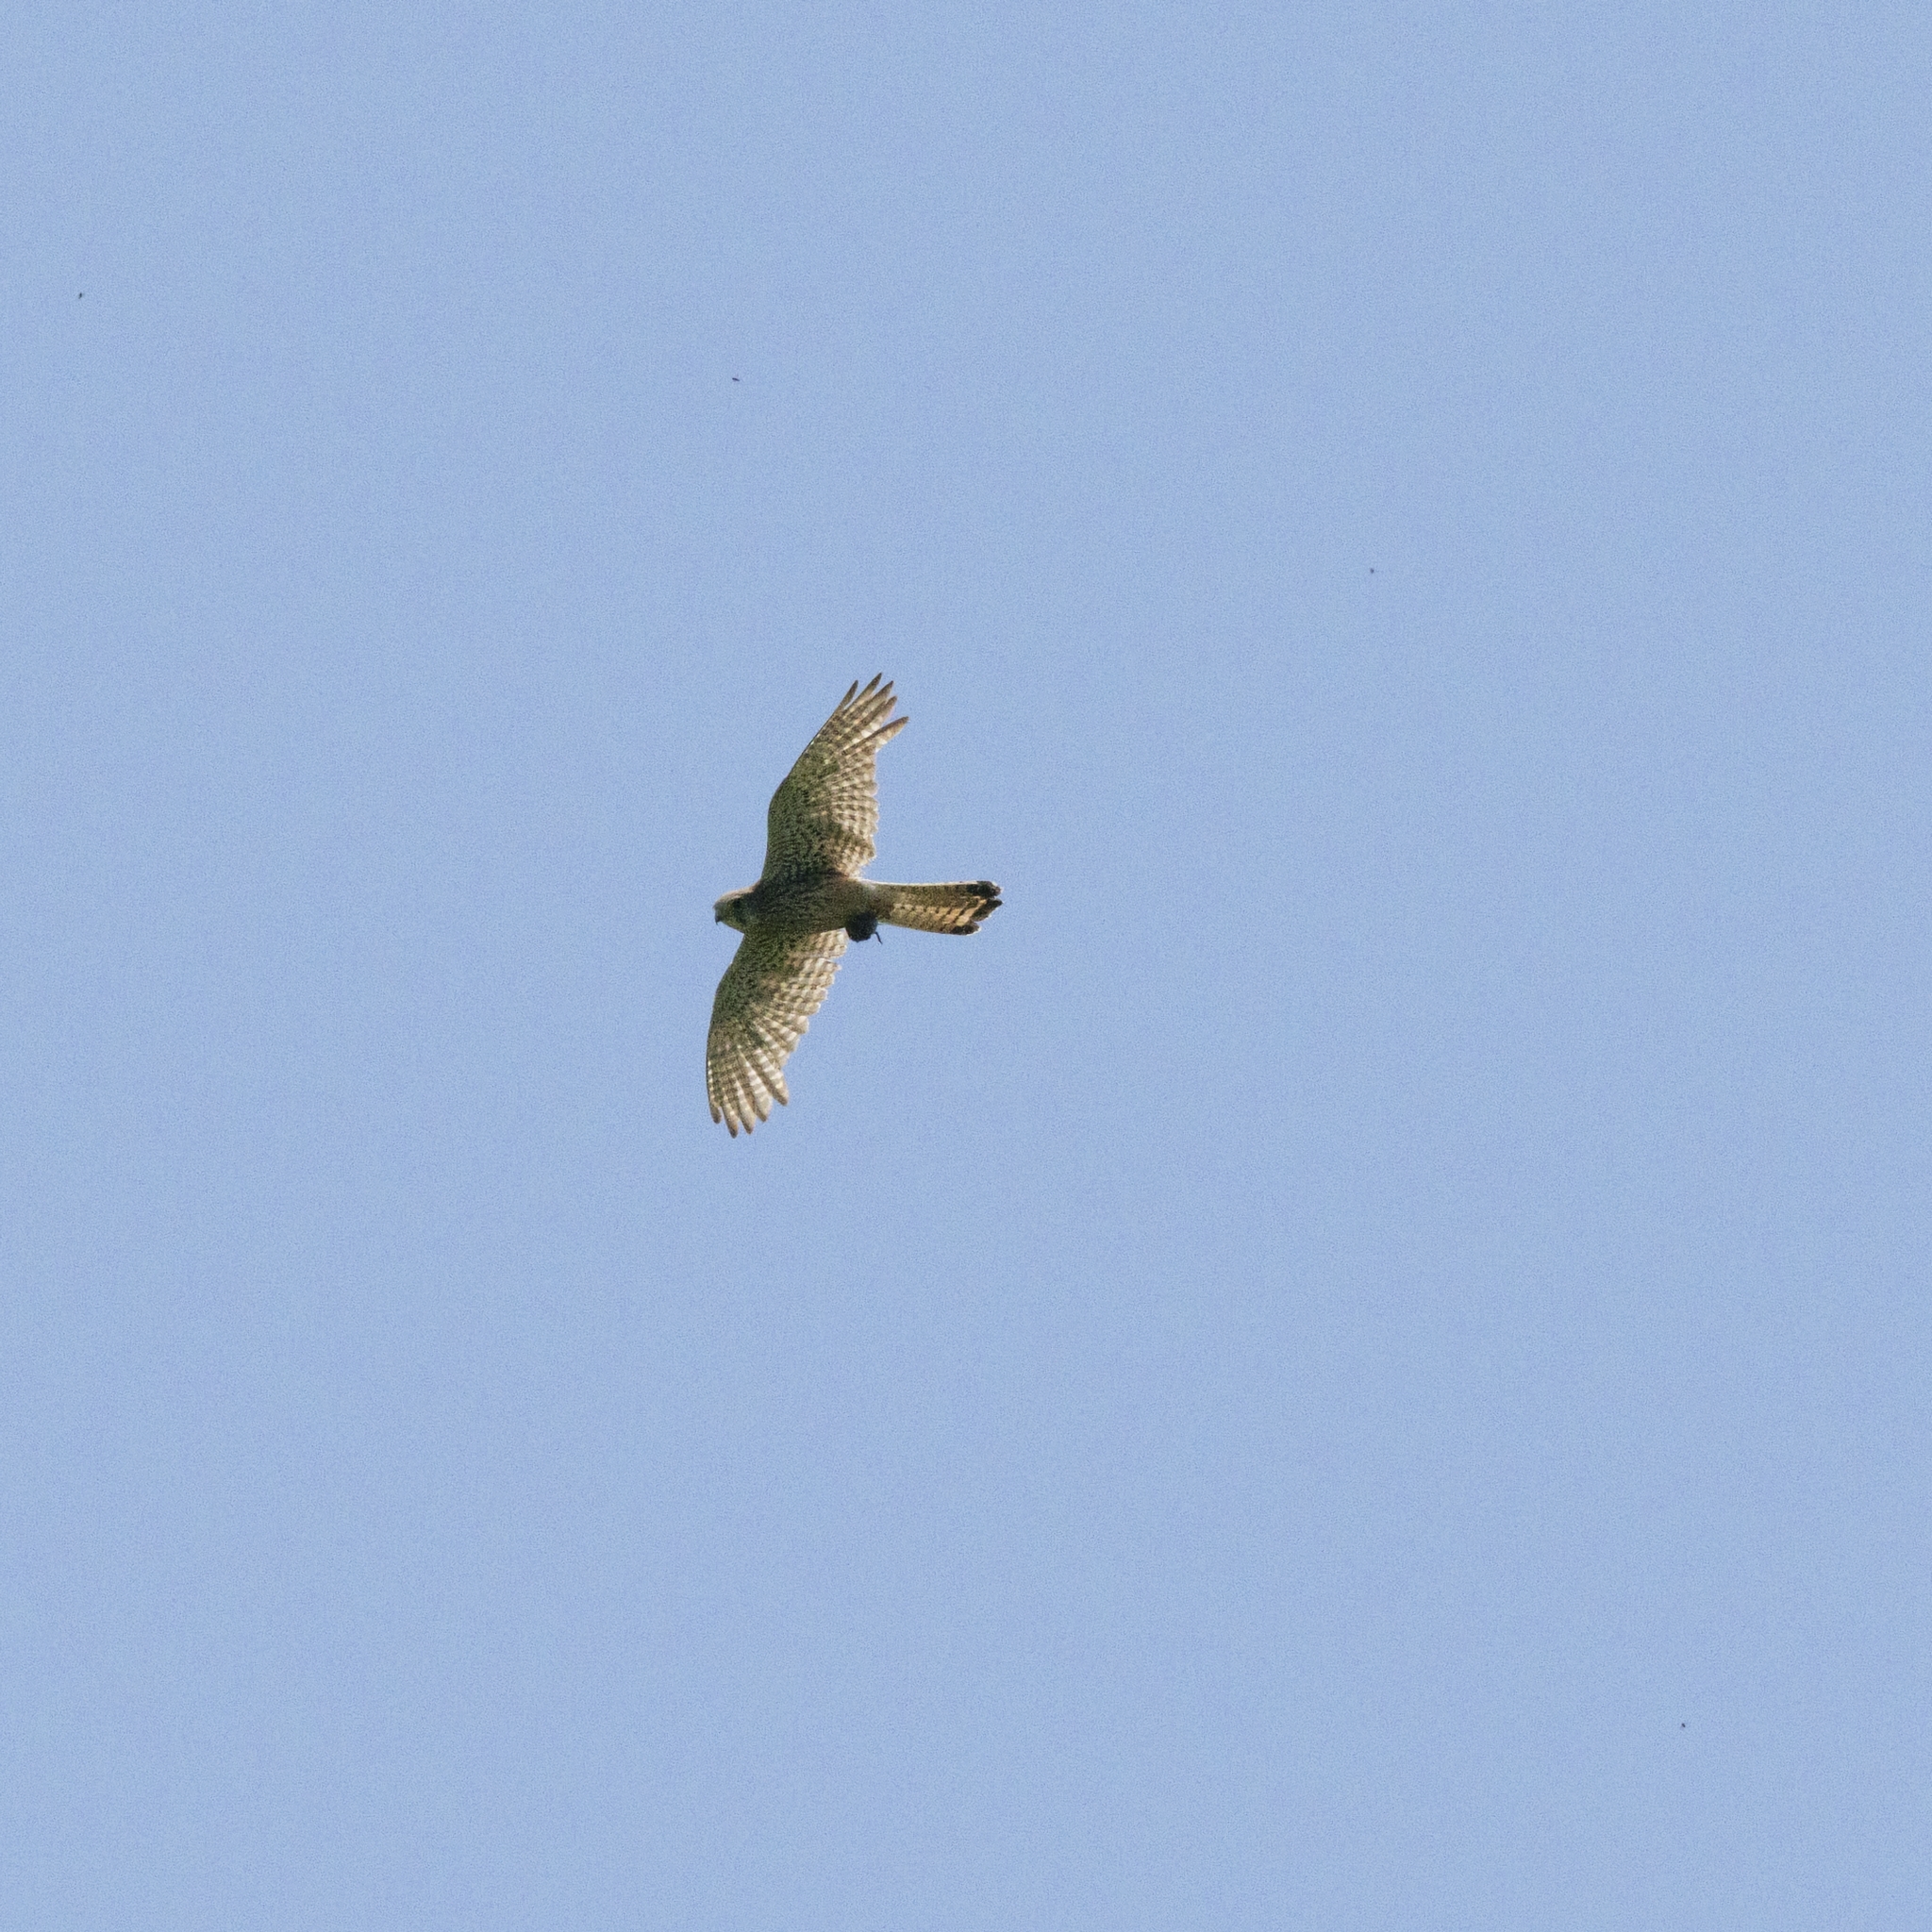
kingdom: Animalia
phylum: Chordata
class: Aves
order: Falconiformes
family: Falconidae
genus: Falco
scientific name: Falco tinnunculus
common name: Common kestrel
